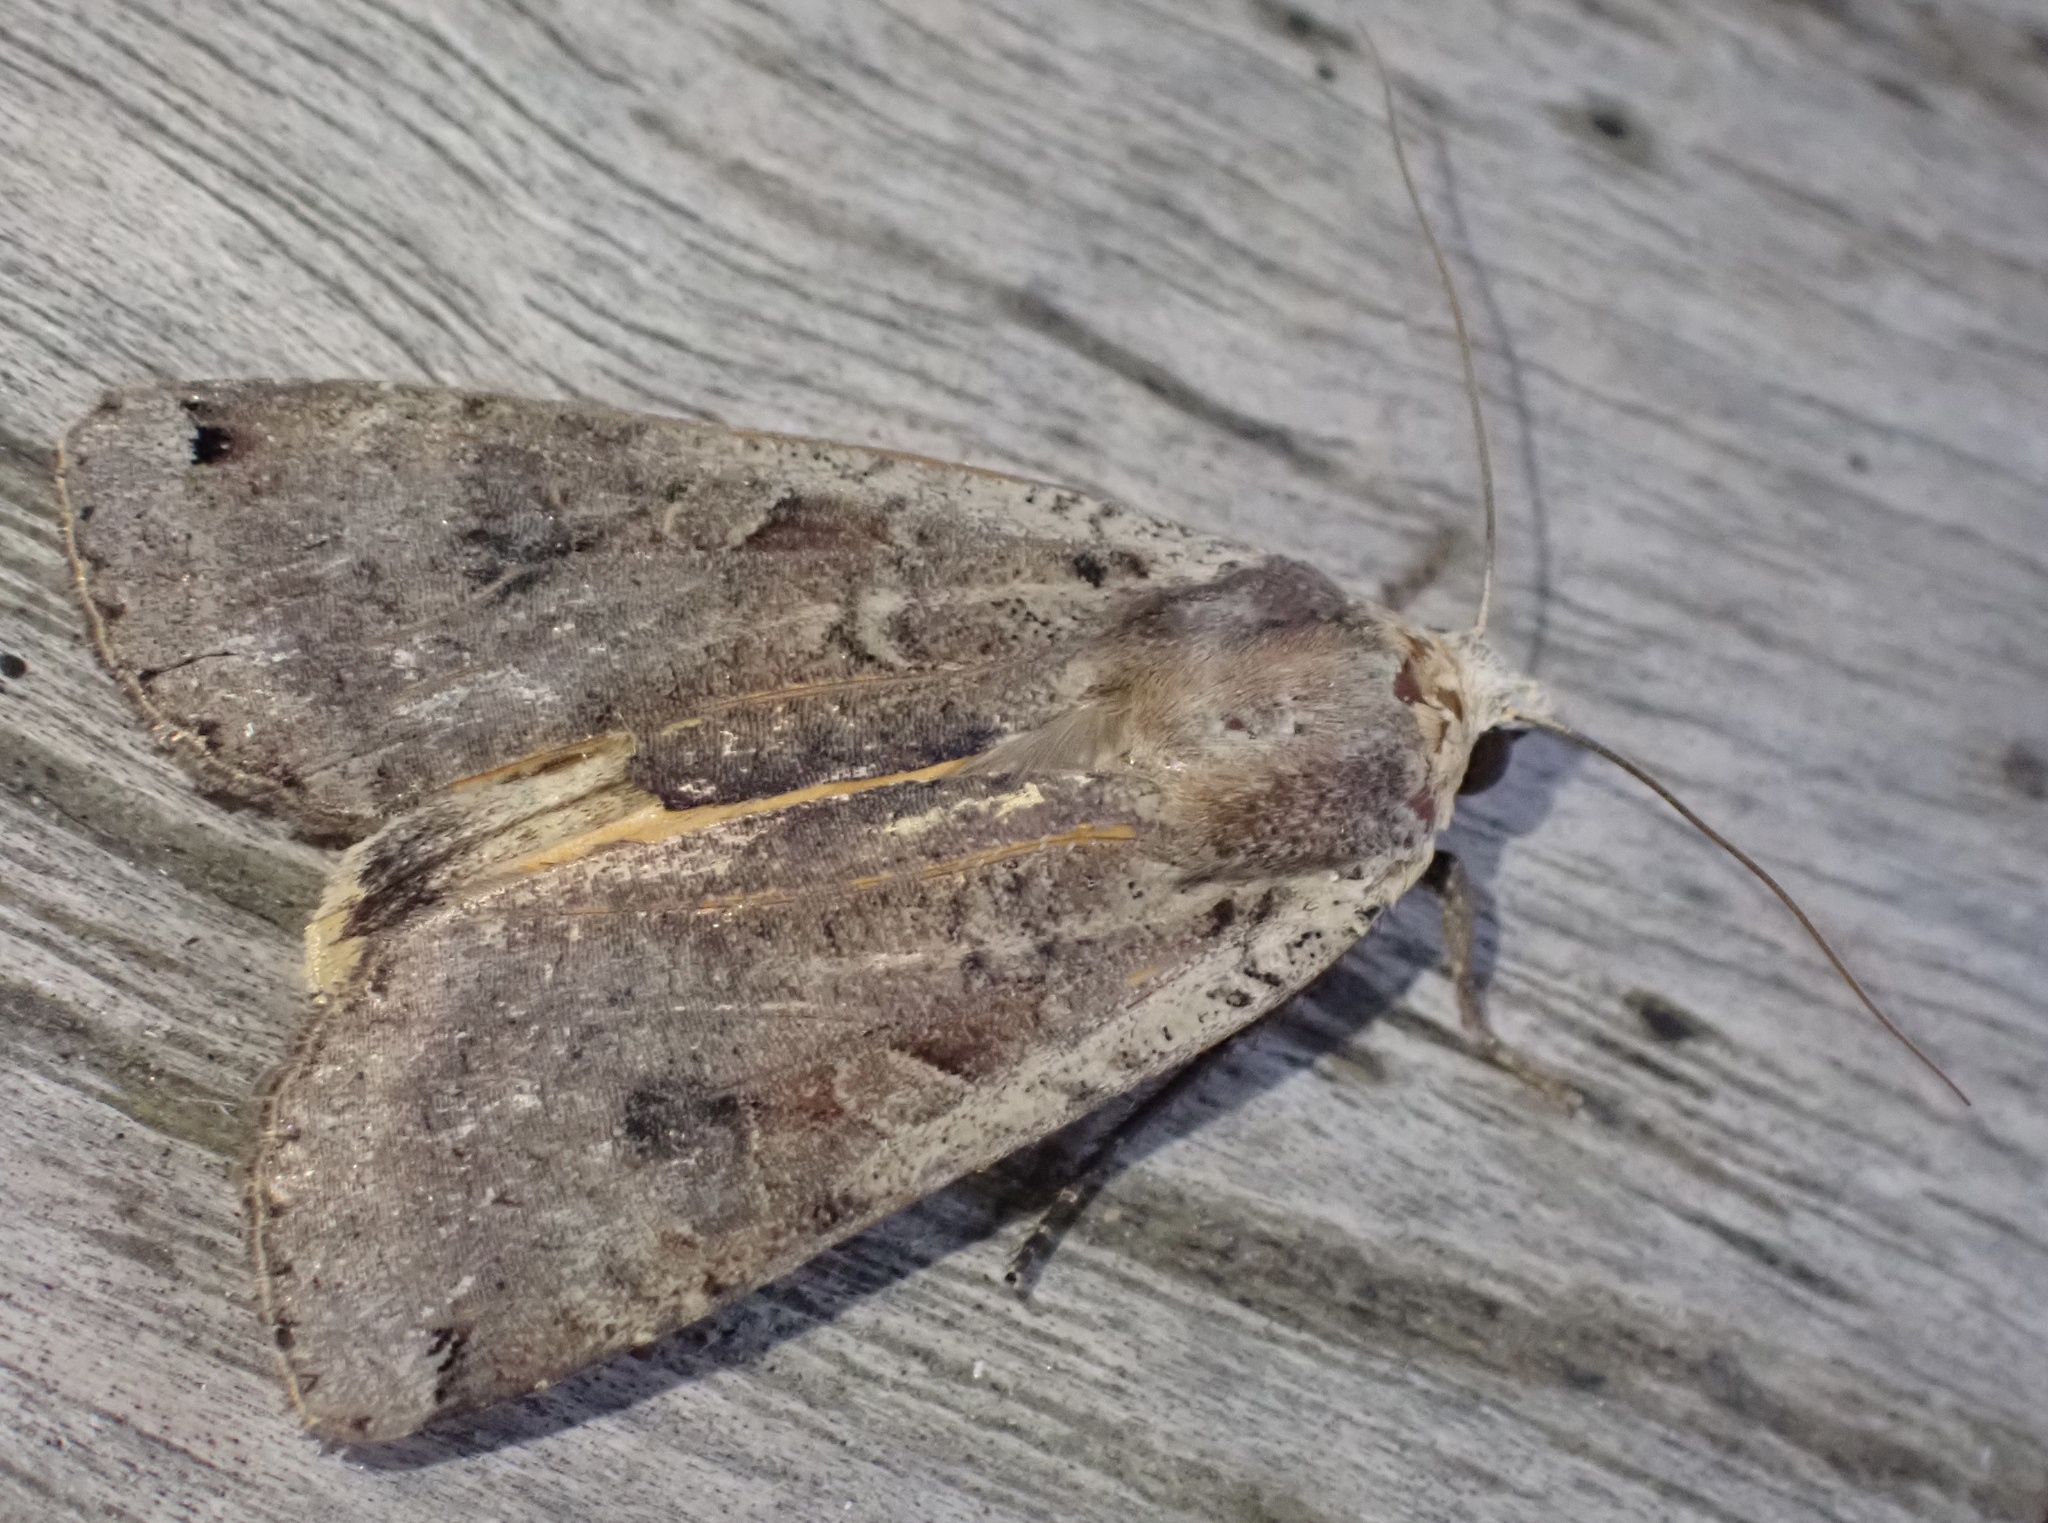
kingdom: Animalia
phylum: Arthropoda
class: Insecta
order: Lepidoptera
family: Noctuidae
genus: Noctua
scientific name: Noctua pronuba
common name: Large yellow underwing
